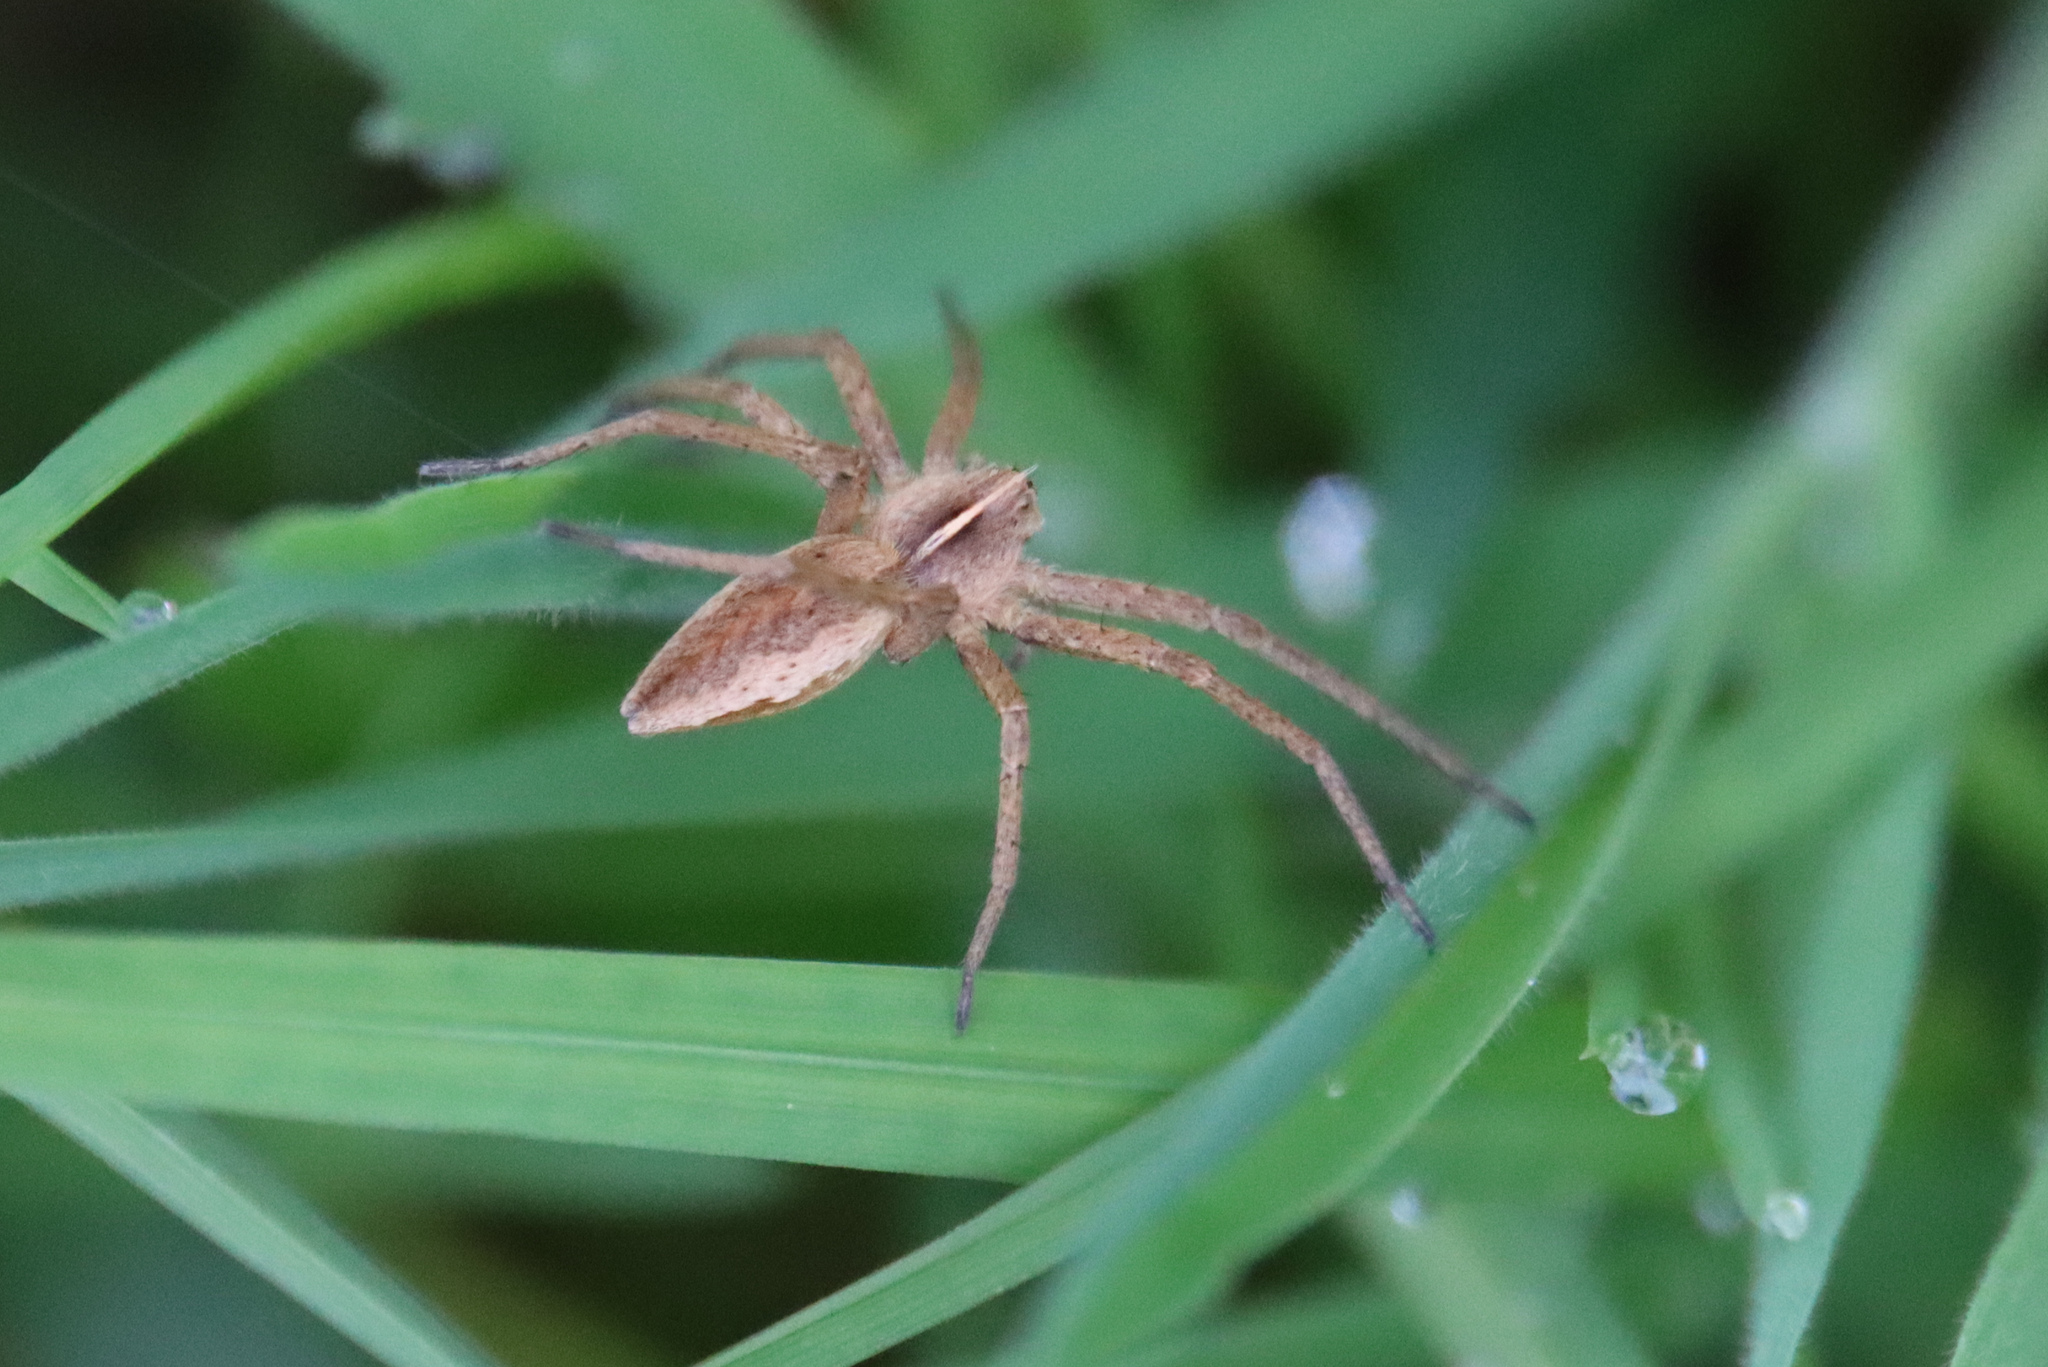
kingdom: Animalia
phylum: Arthropoda
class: Arachnida
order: Araneae
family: Pisauridae
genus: Pisaura
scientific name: Pisaura mirabilis
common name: Tent spider
